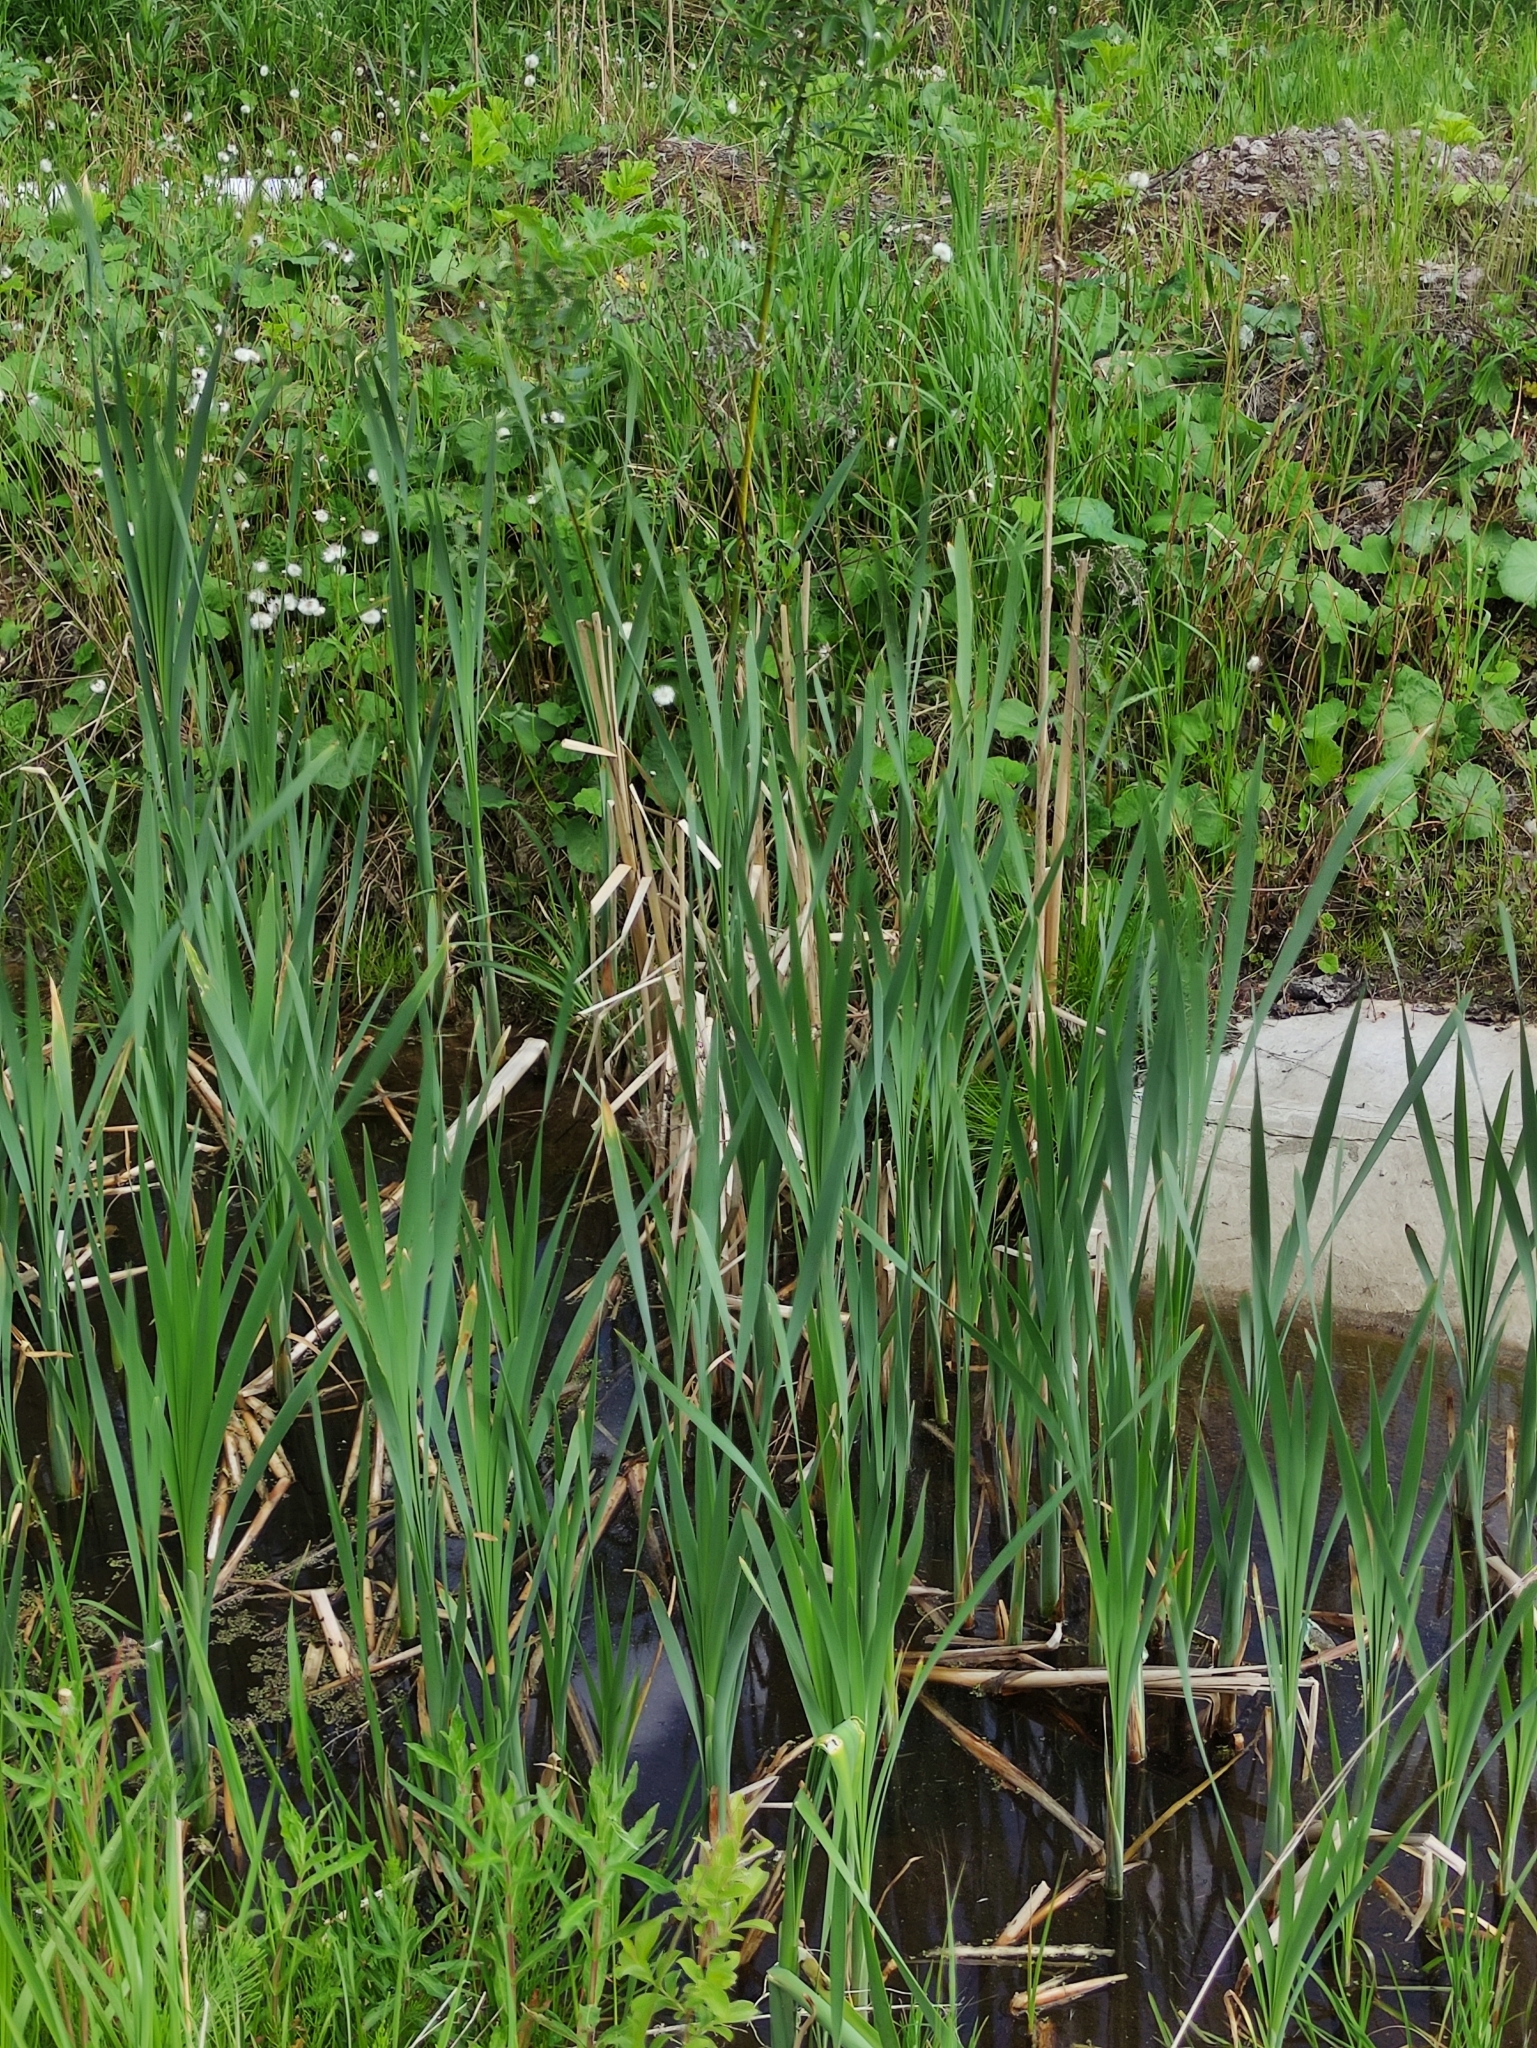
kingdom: Plantae
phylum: Tracheophyta
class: Liliopsida
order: Poales
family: Typhaceae
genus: Typha
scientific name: Typha latifolia
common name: Broadleaf cattail
